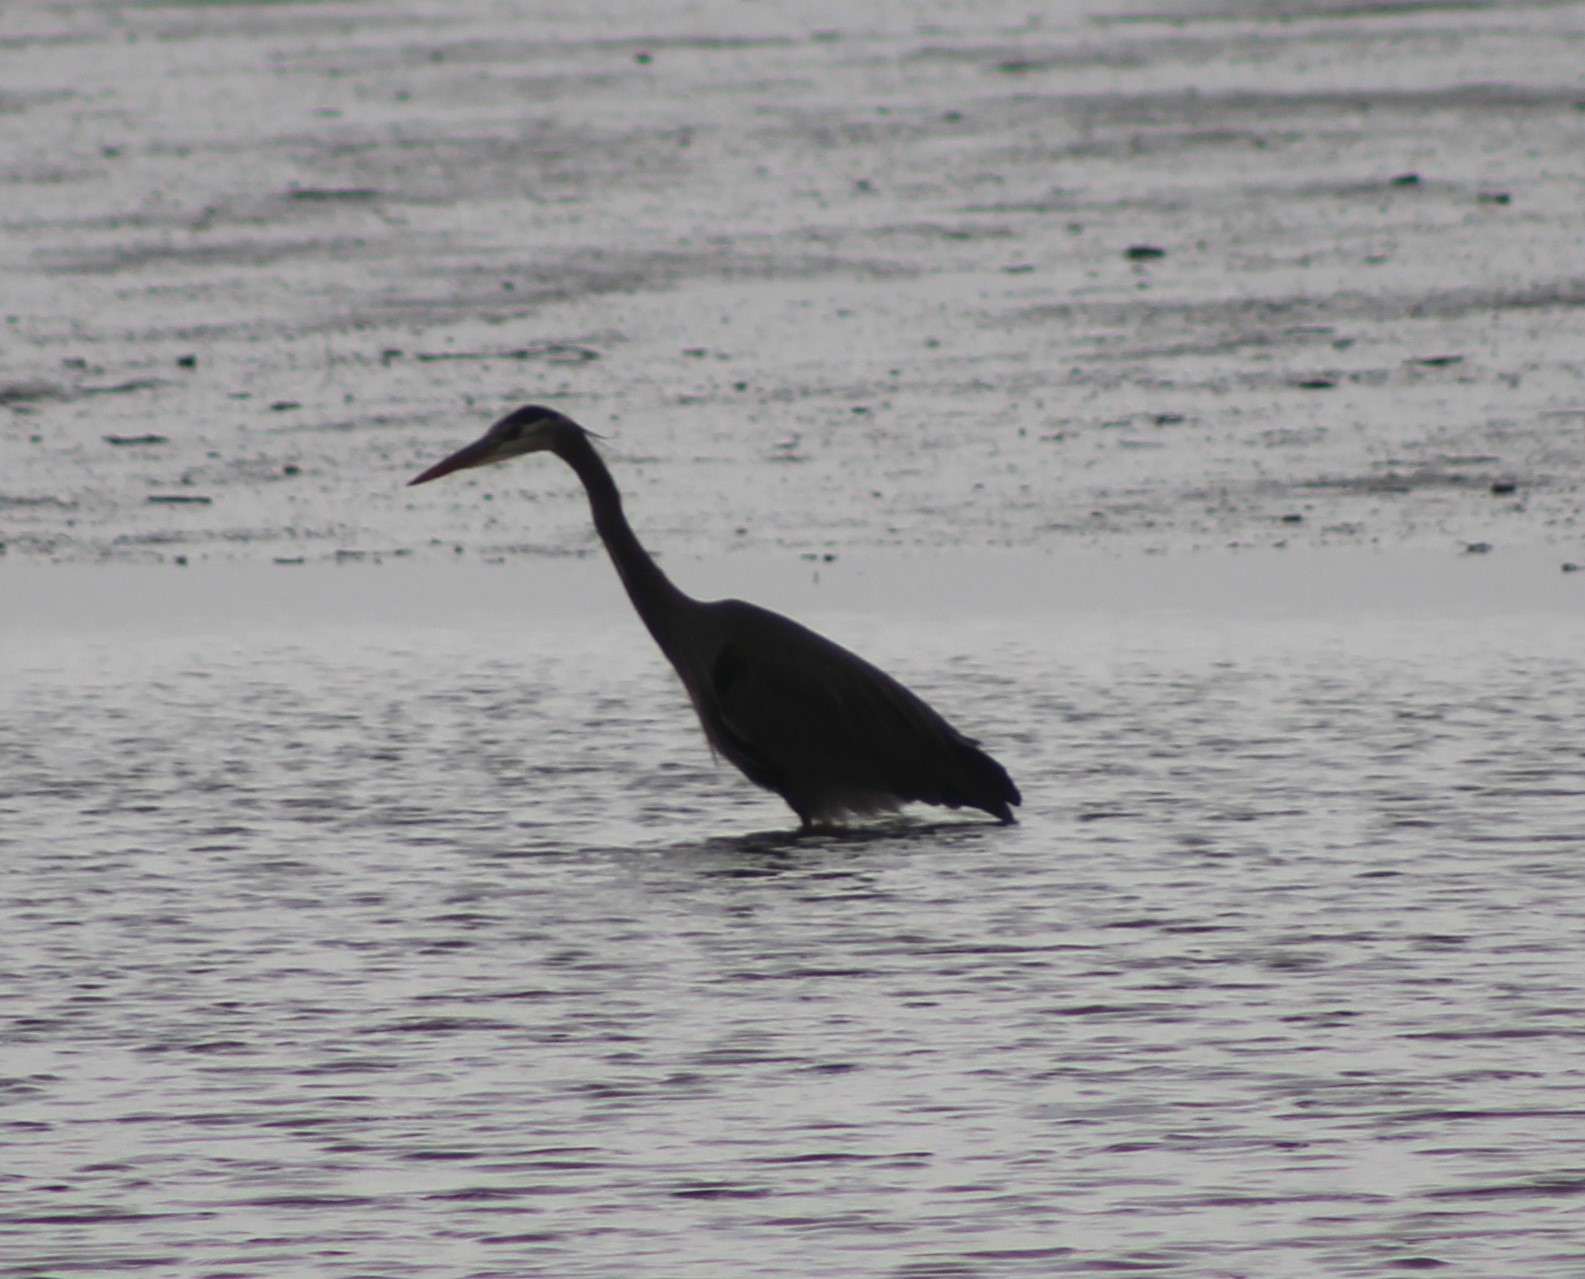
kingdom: Animalia
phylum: Chordata
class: Aves
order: Pelecaniformes
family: Ardeidae
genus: Ardea
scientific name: Ardea herodias
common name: Great blue heron
